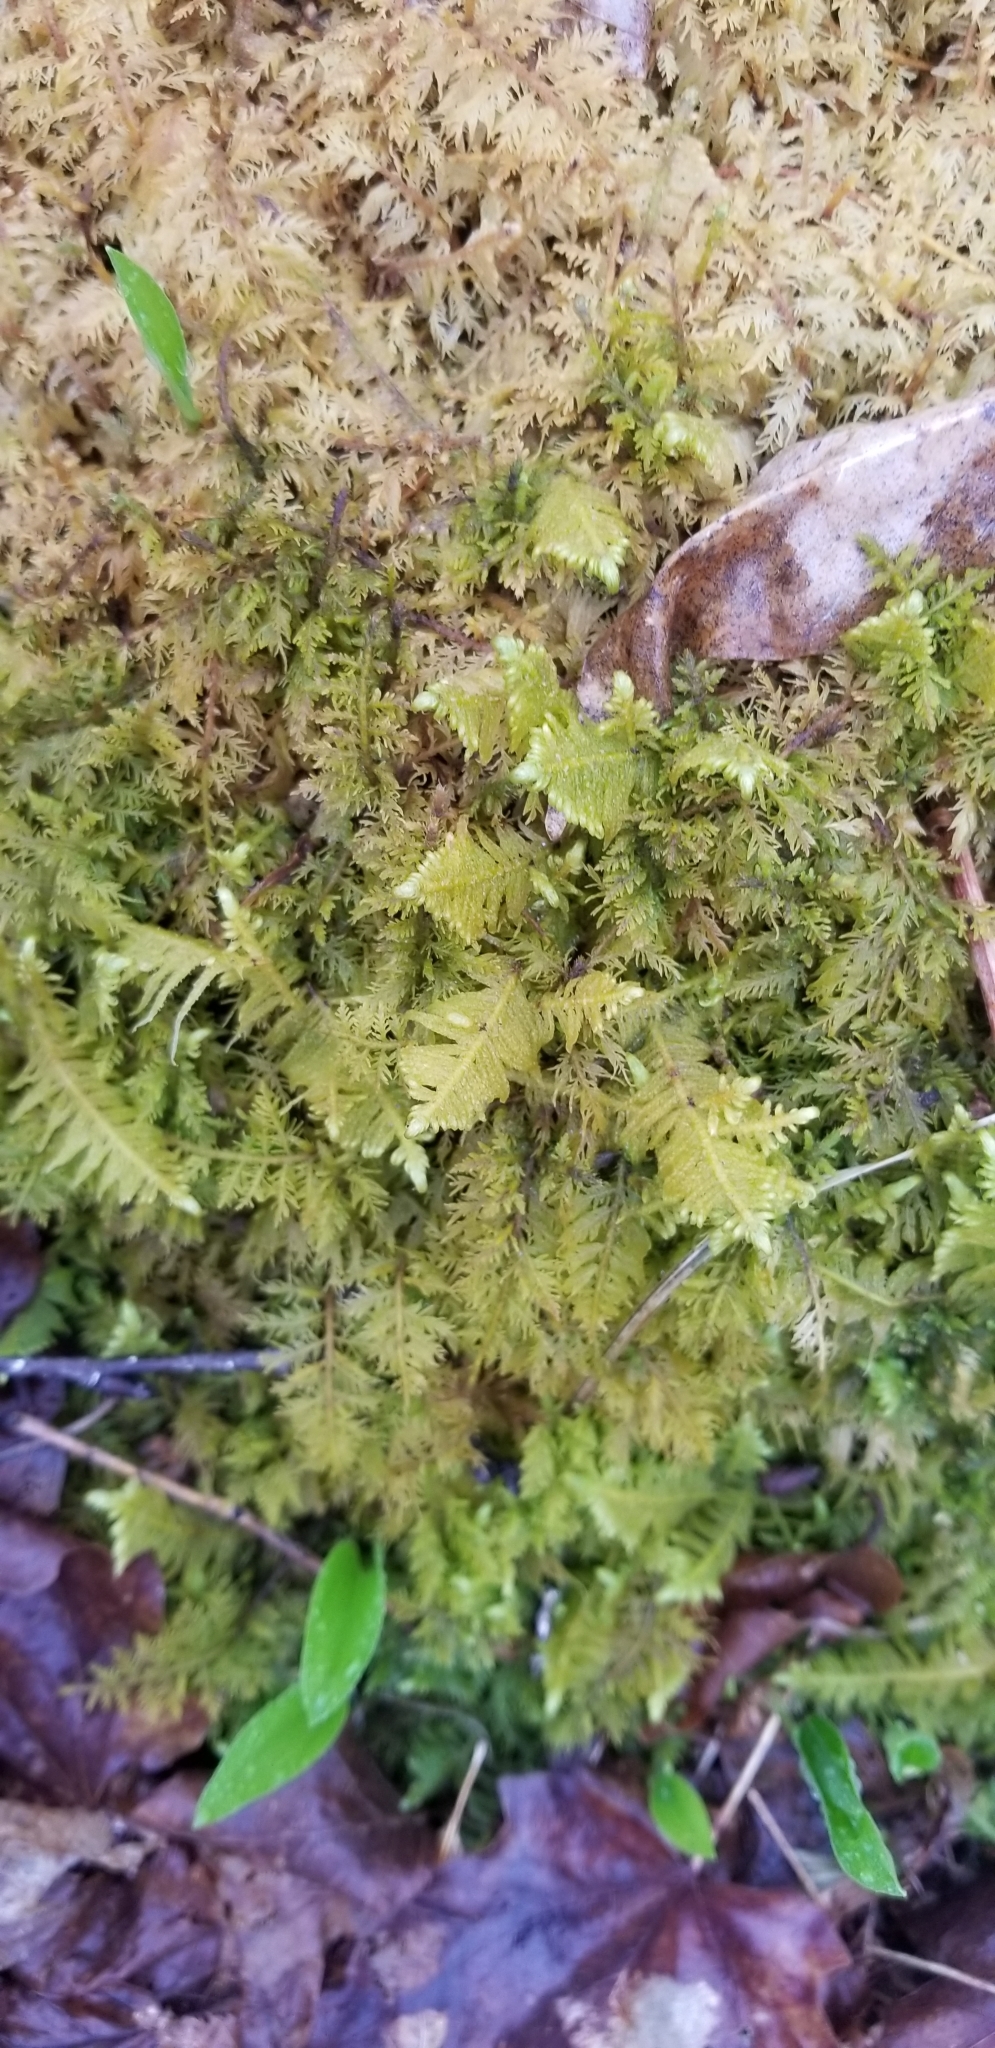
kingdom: Plantae
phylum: Bryophyta
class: Bryopsida
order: Hypnales
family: Pylaisiaceae
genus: Ptilium
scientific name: Ptilium crista-castrensis
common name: Knight's plume moss
